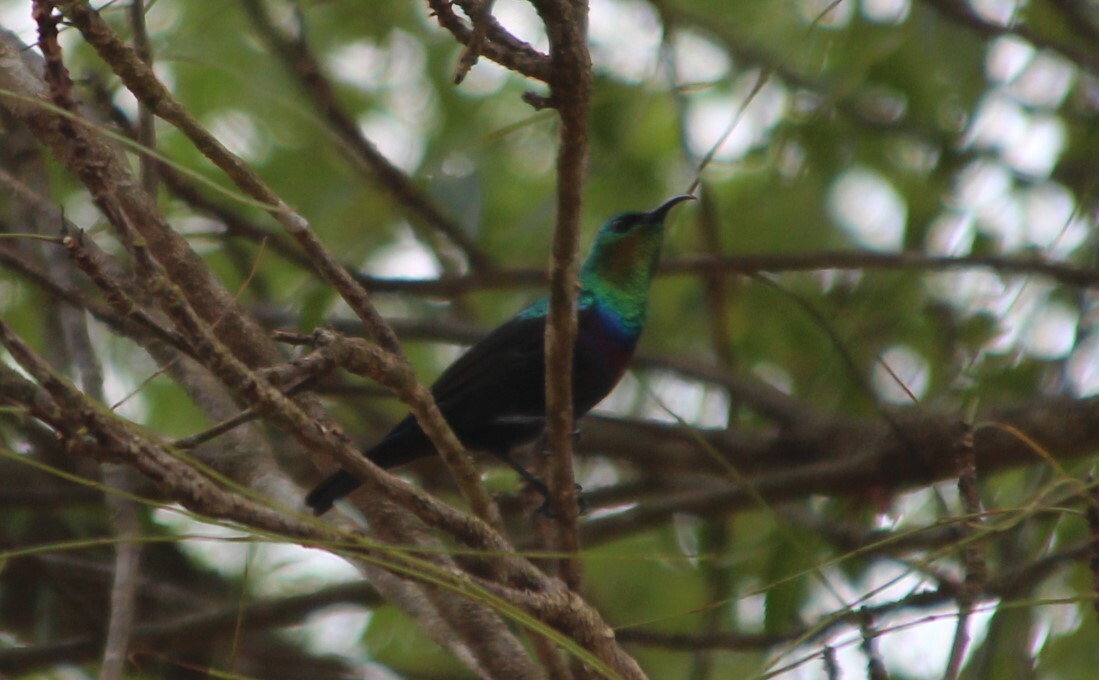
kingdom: Animalia
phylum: Chordata
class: Aves
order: Passeriformes
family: Nectariniidae
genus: Cinnyris
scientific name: Cinnyris bifasciatus
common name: Purple-banded sunbird
